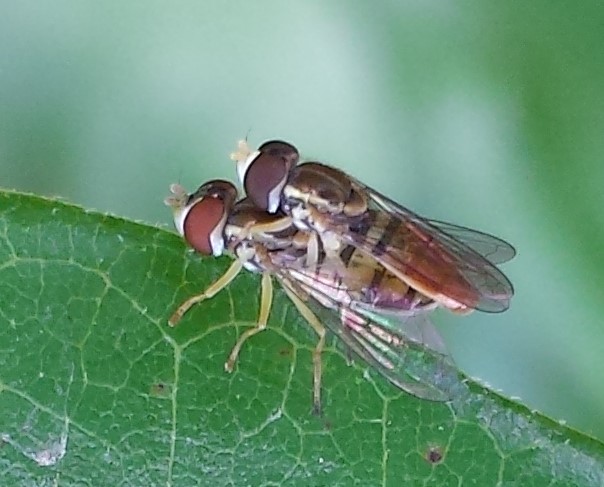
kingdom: Animalia
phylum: Arthropoda
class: Insecta
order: Diptera
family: Syrphidae
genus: Toxomerus
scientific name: Toxomerus marginatus
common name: Syrphid fly
